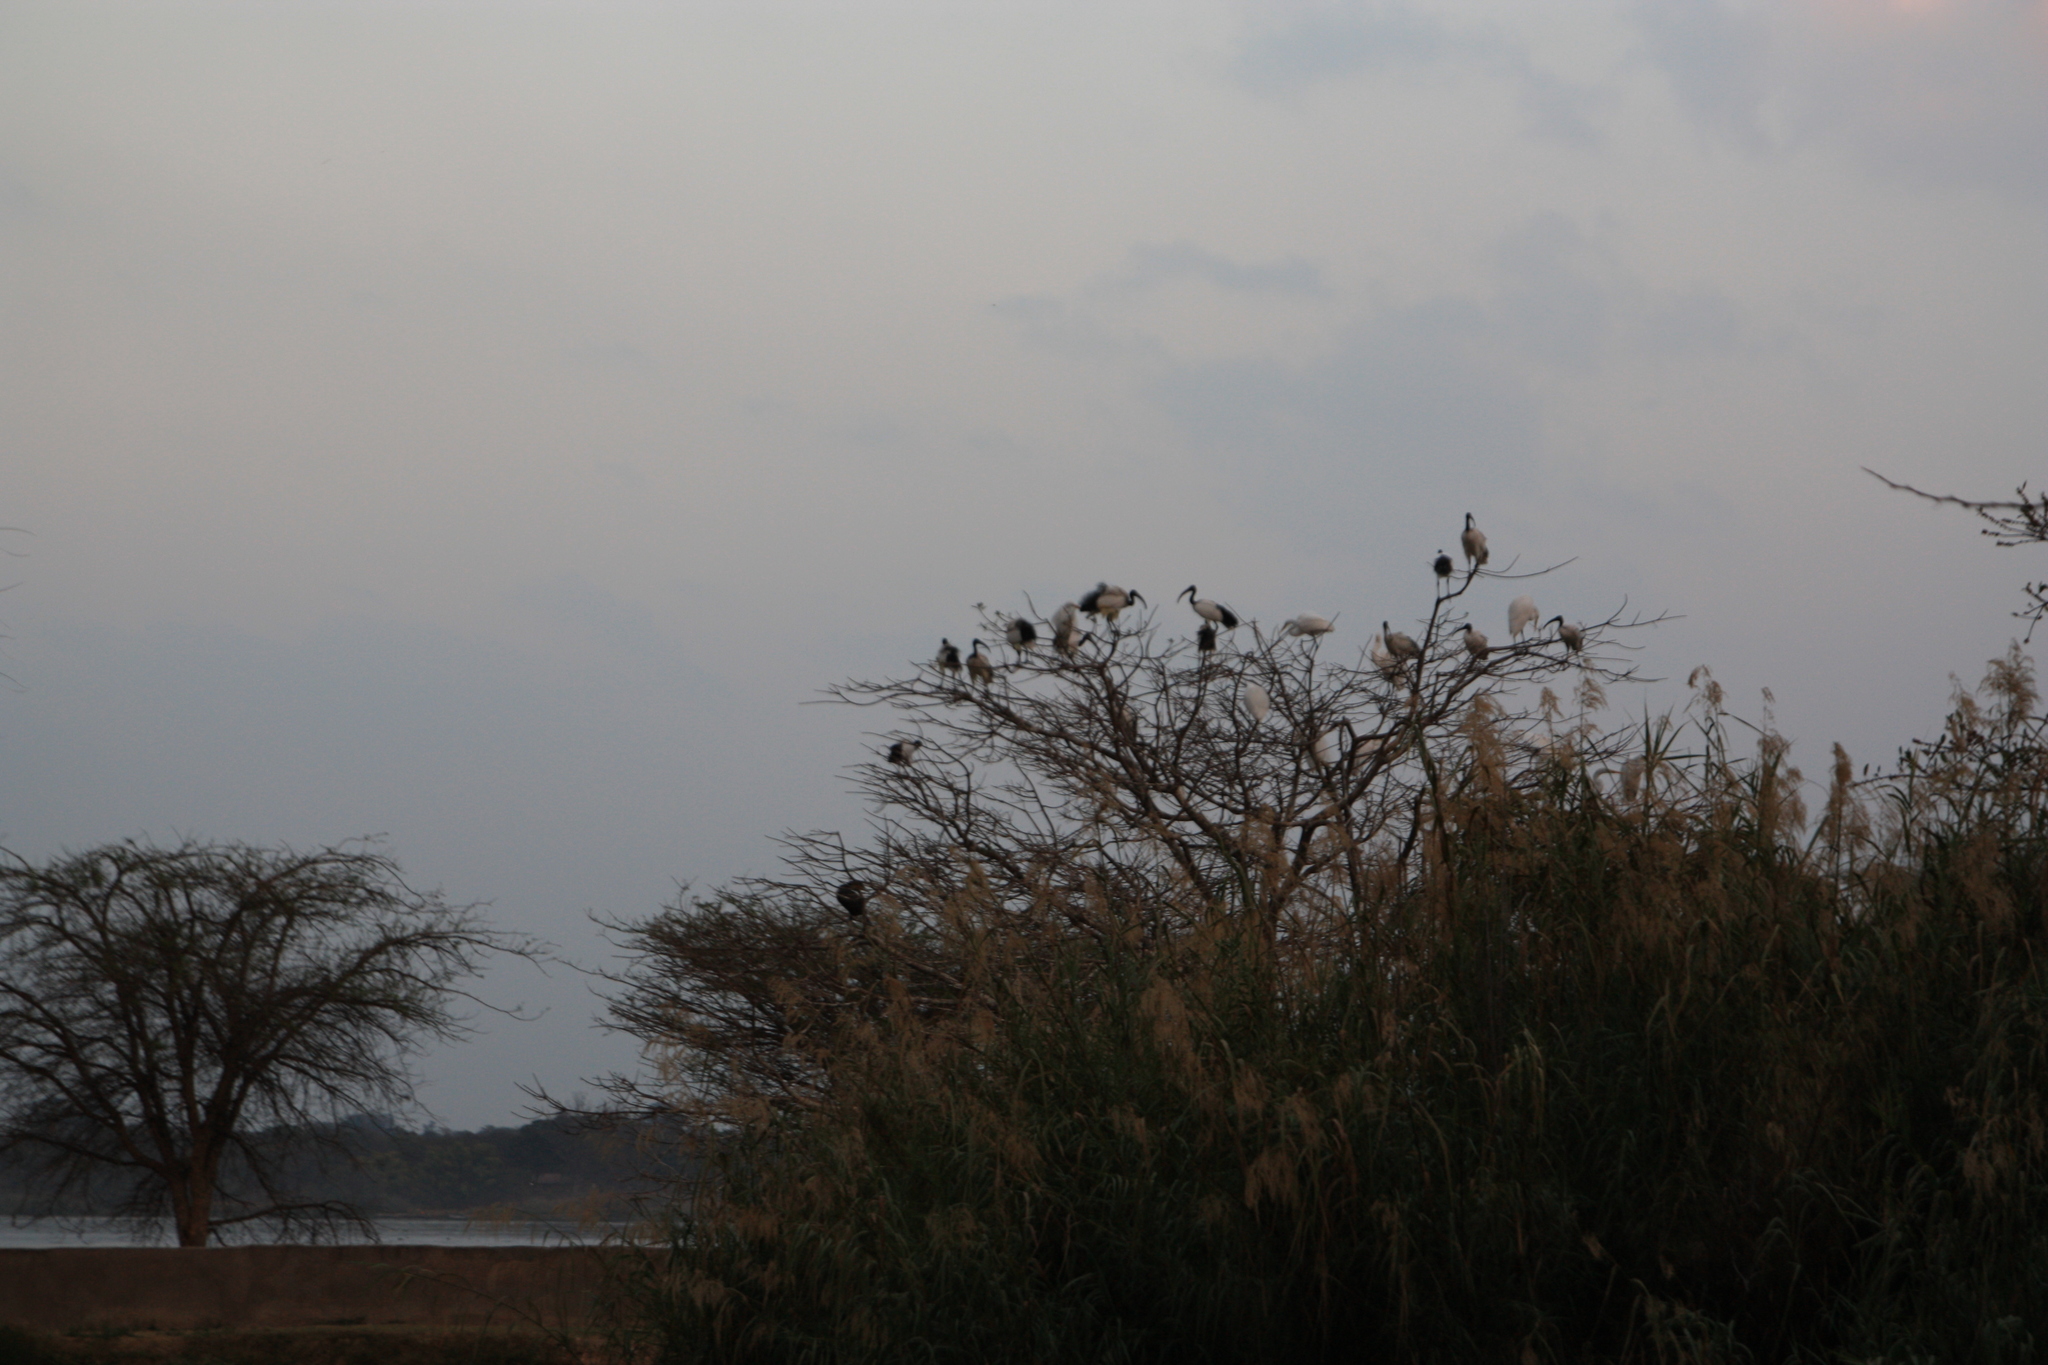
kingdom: Animalia
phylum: Chordata
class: Aves
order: Pelecaniformes
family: Threskiornithidae
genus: Threskiornis
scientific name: Threskiornis aethiopicus
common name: Sacred ibis
